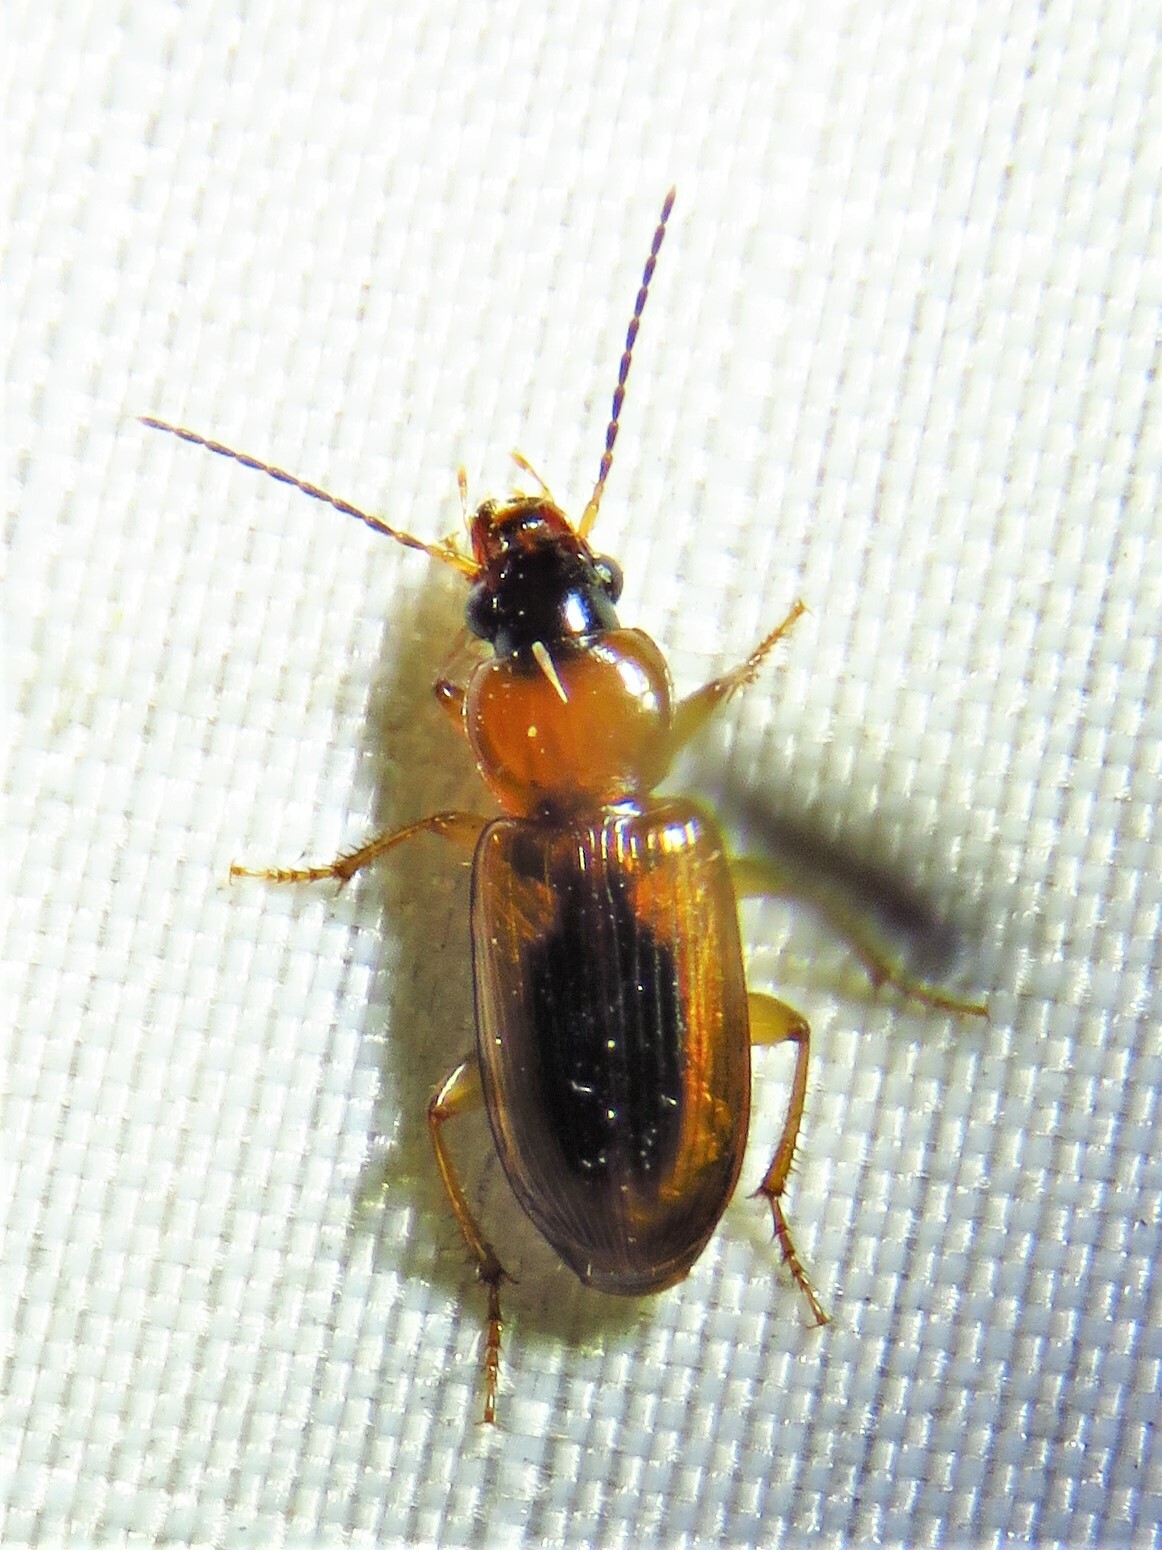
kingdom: Animalia
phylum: Arthropoda
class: Insecta
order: Coleoptera
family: Carabidae
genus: Stenolophus
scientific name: Stenolophus dissimilis
